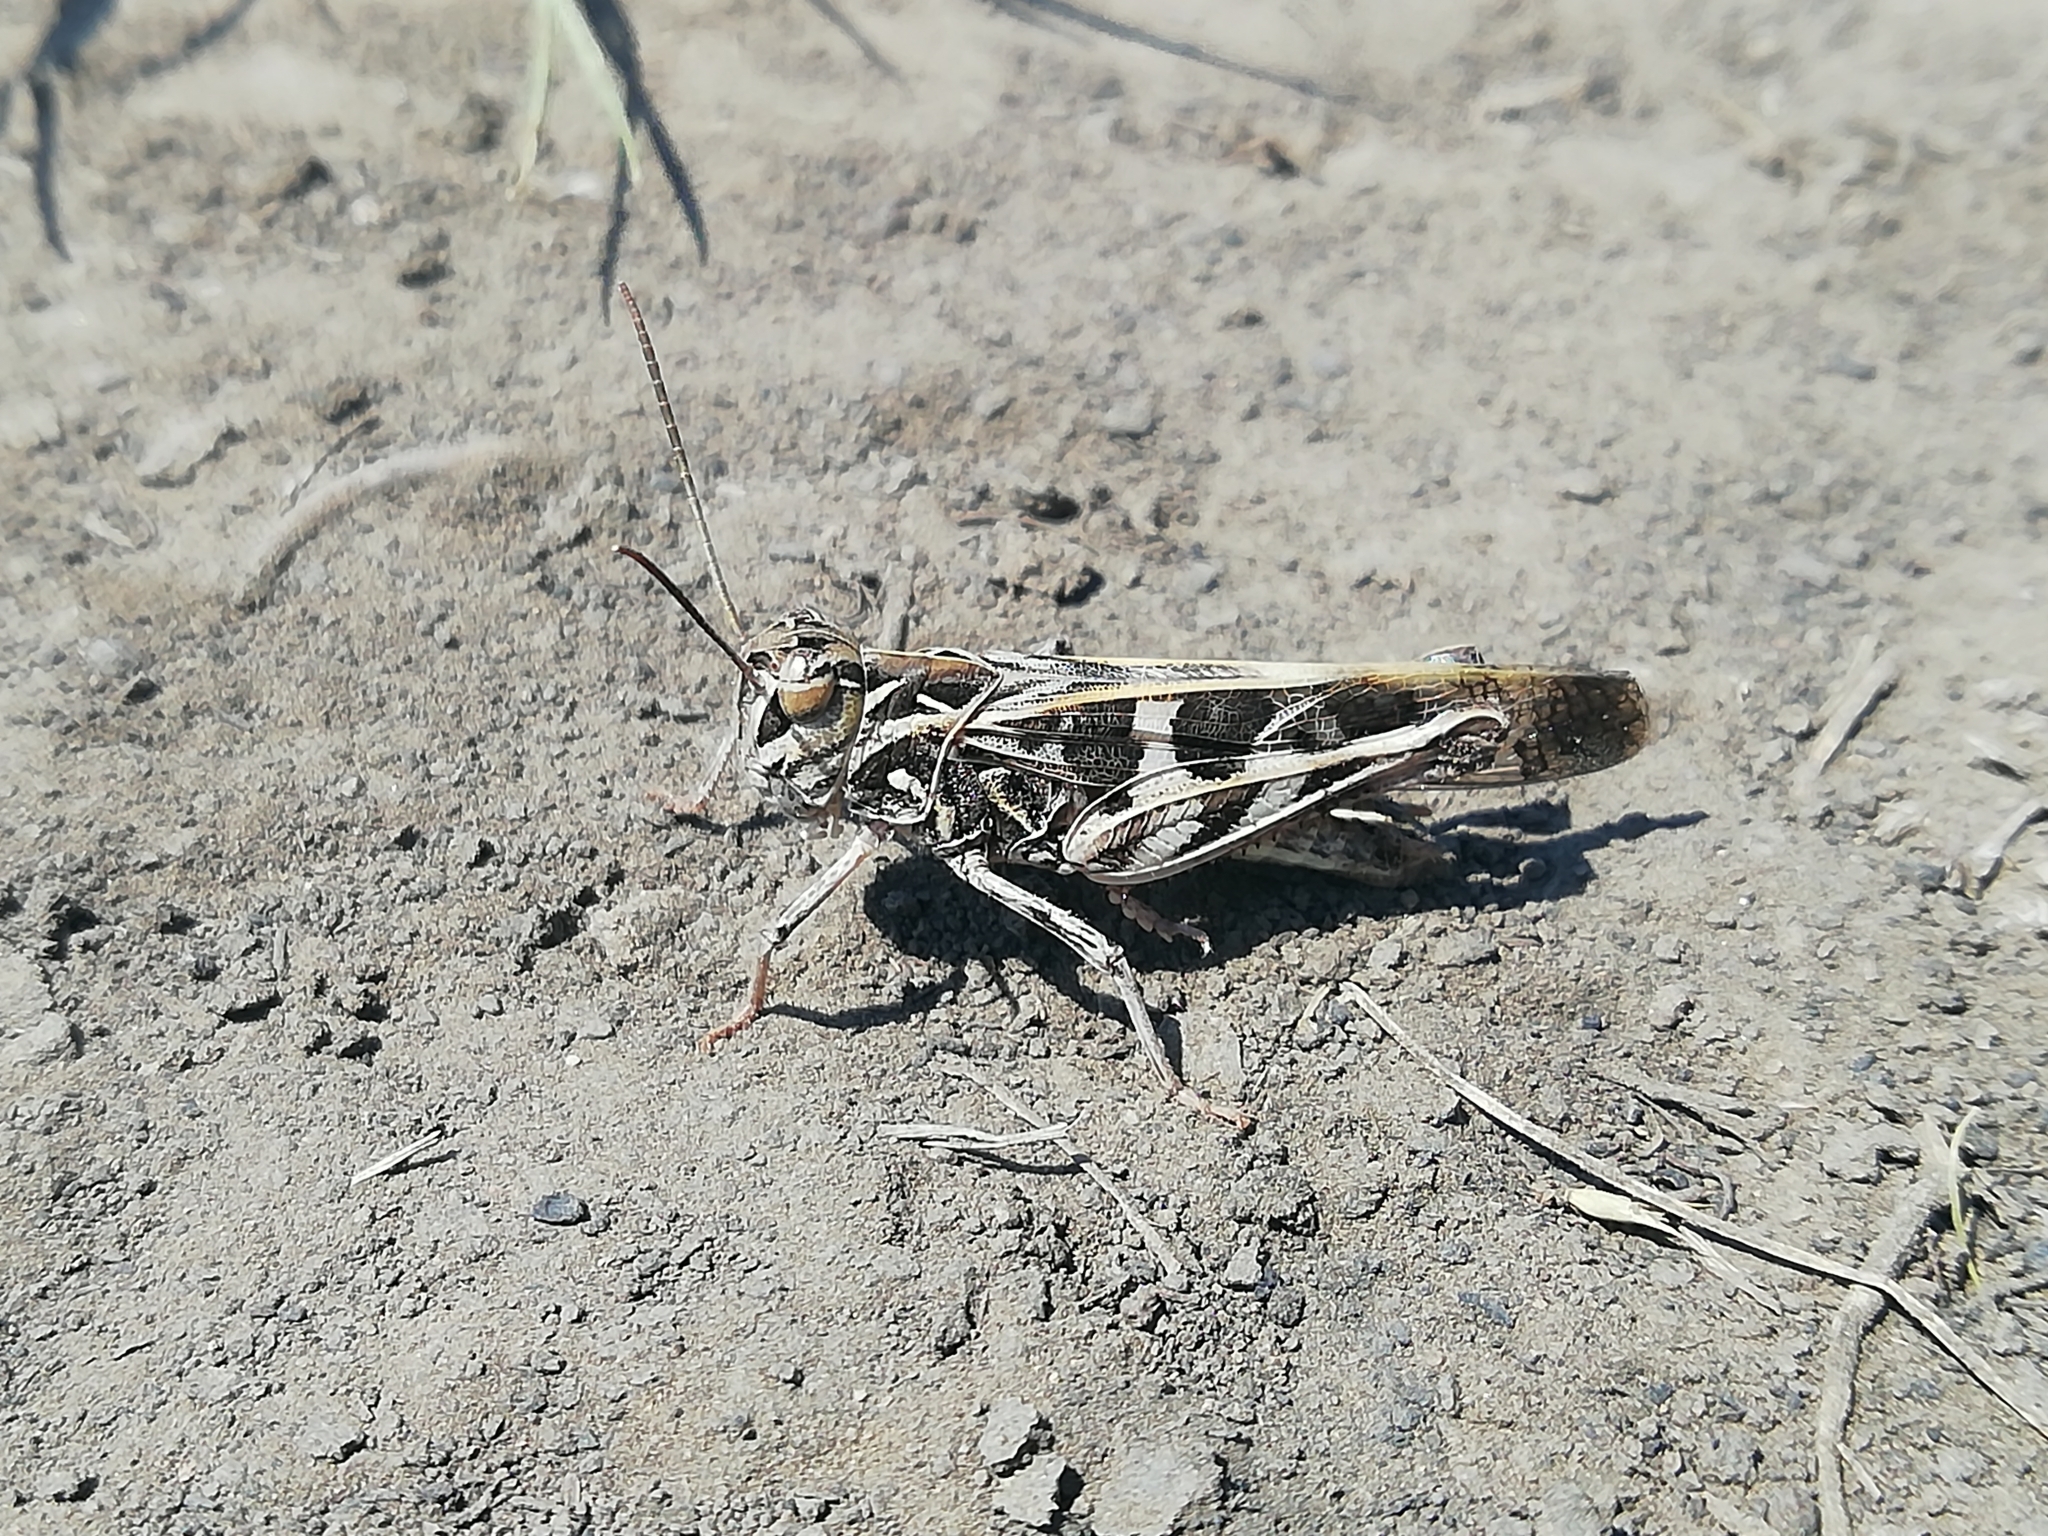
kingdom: Animalia
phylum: Arthropoda
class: Insecta
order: Orthoptera
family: Acrididae
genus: Oedaleus
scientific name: Oedaleus decorus
